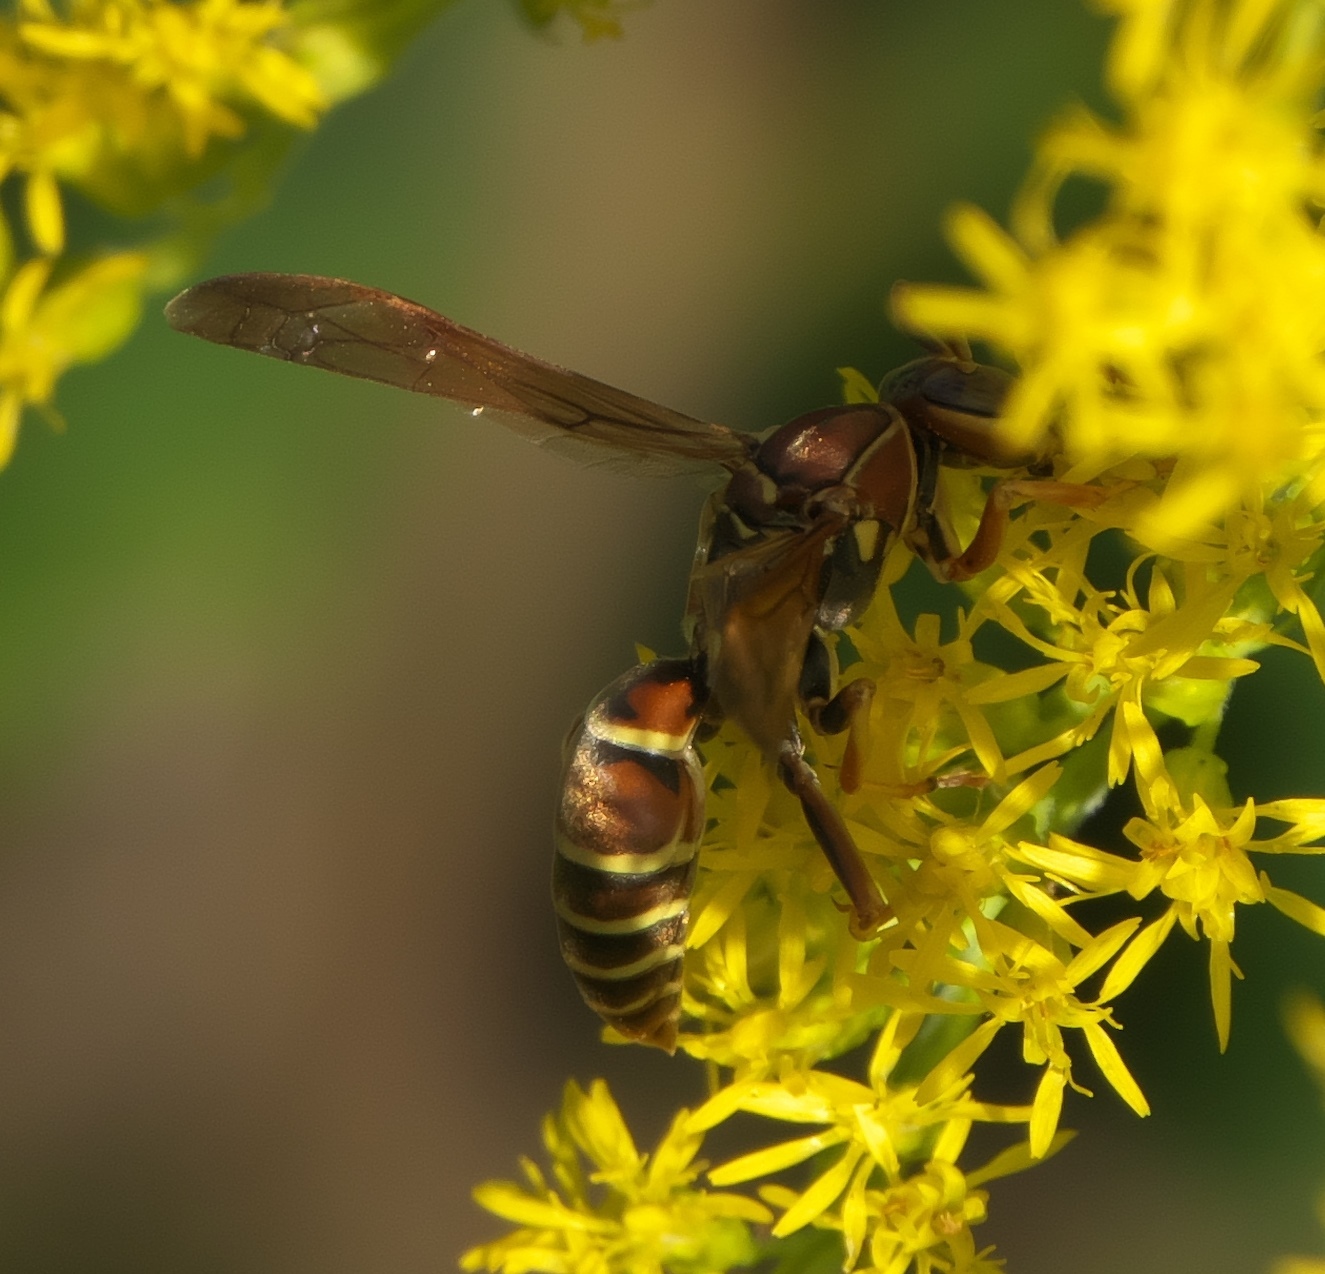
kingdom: Animalia
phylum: Arthropoda
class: Insecta
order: Hymenoptera
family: Eumenidae
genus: Polistes
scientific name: Polistes dorsalis
